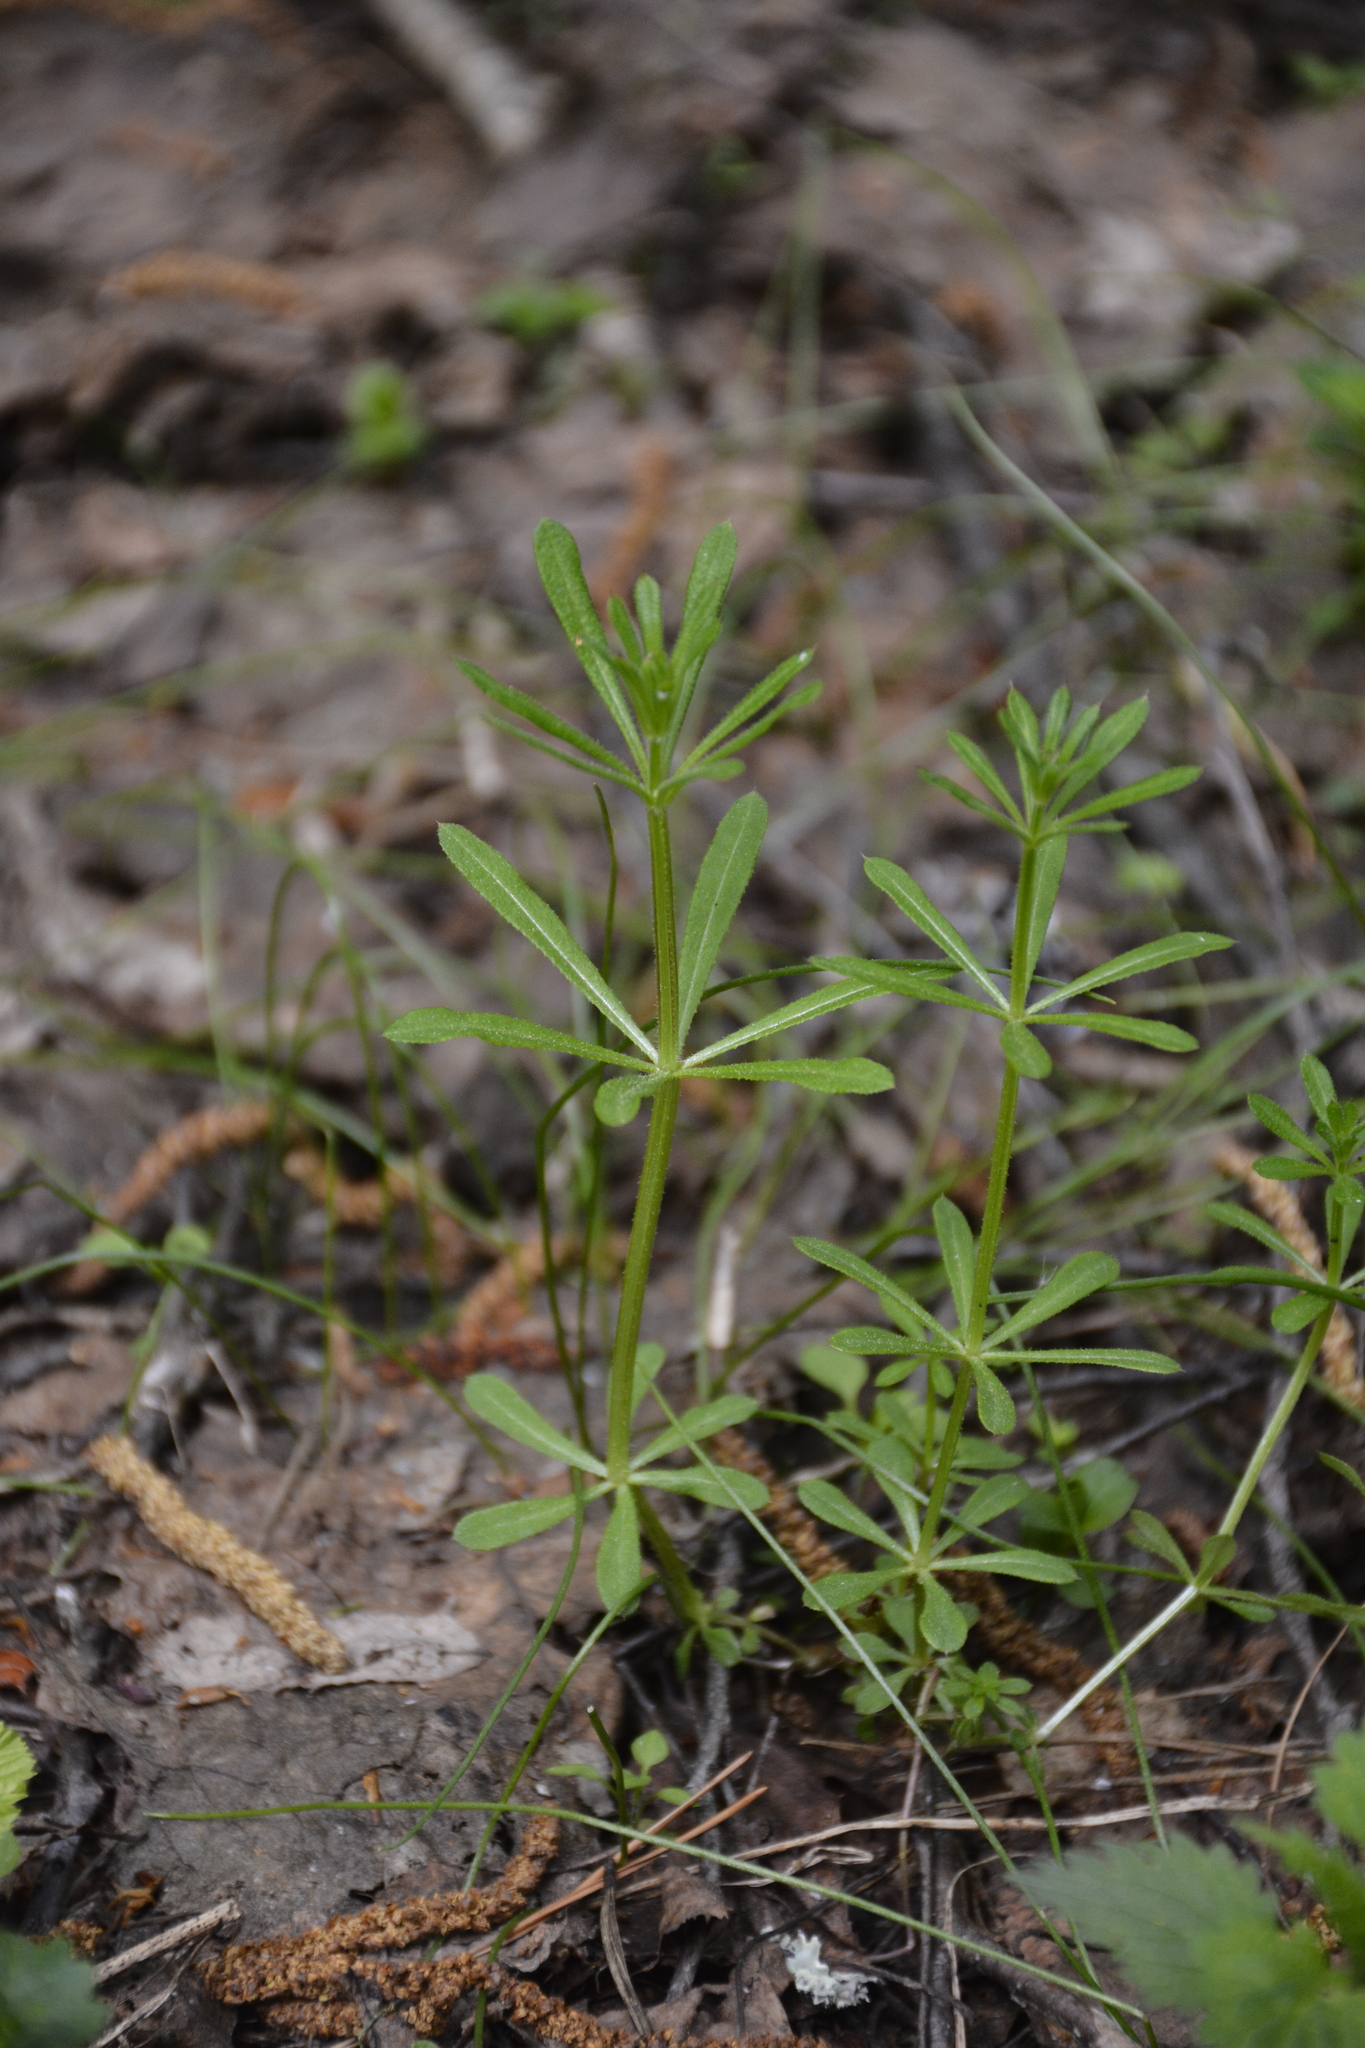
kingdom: Plantae
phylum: Tracheophyta
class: Magnoliopsida
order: Gentianales
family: Rubiaceae
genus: Galium
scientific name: Galium aparine
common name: Cleavers
